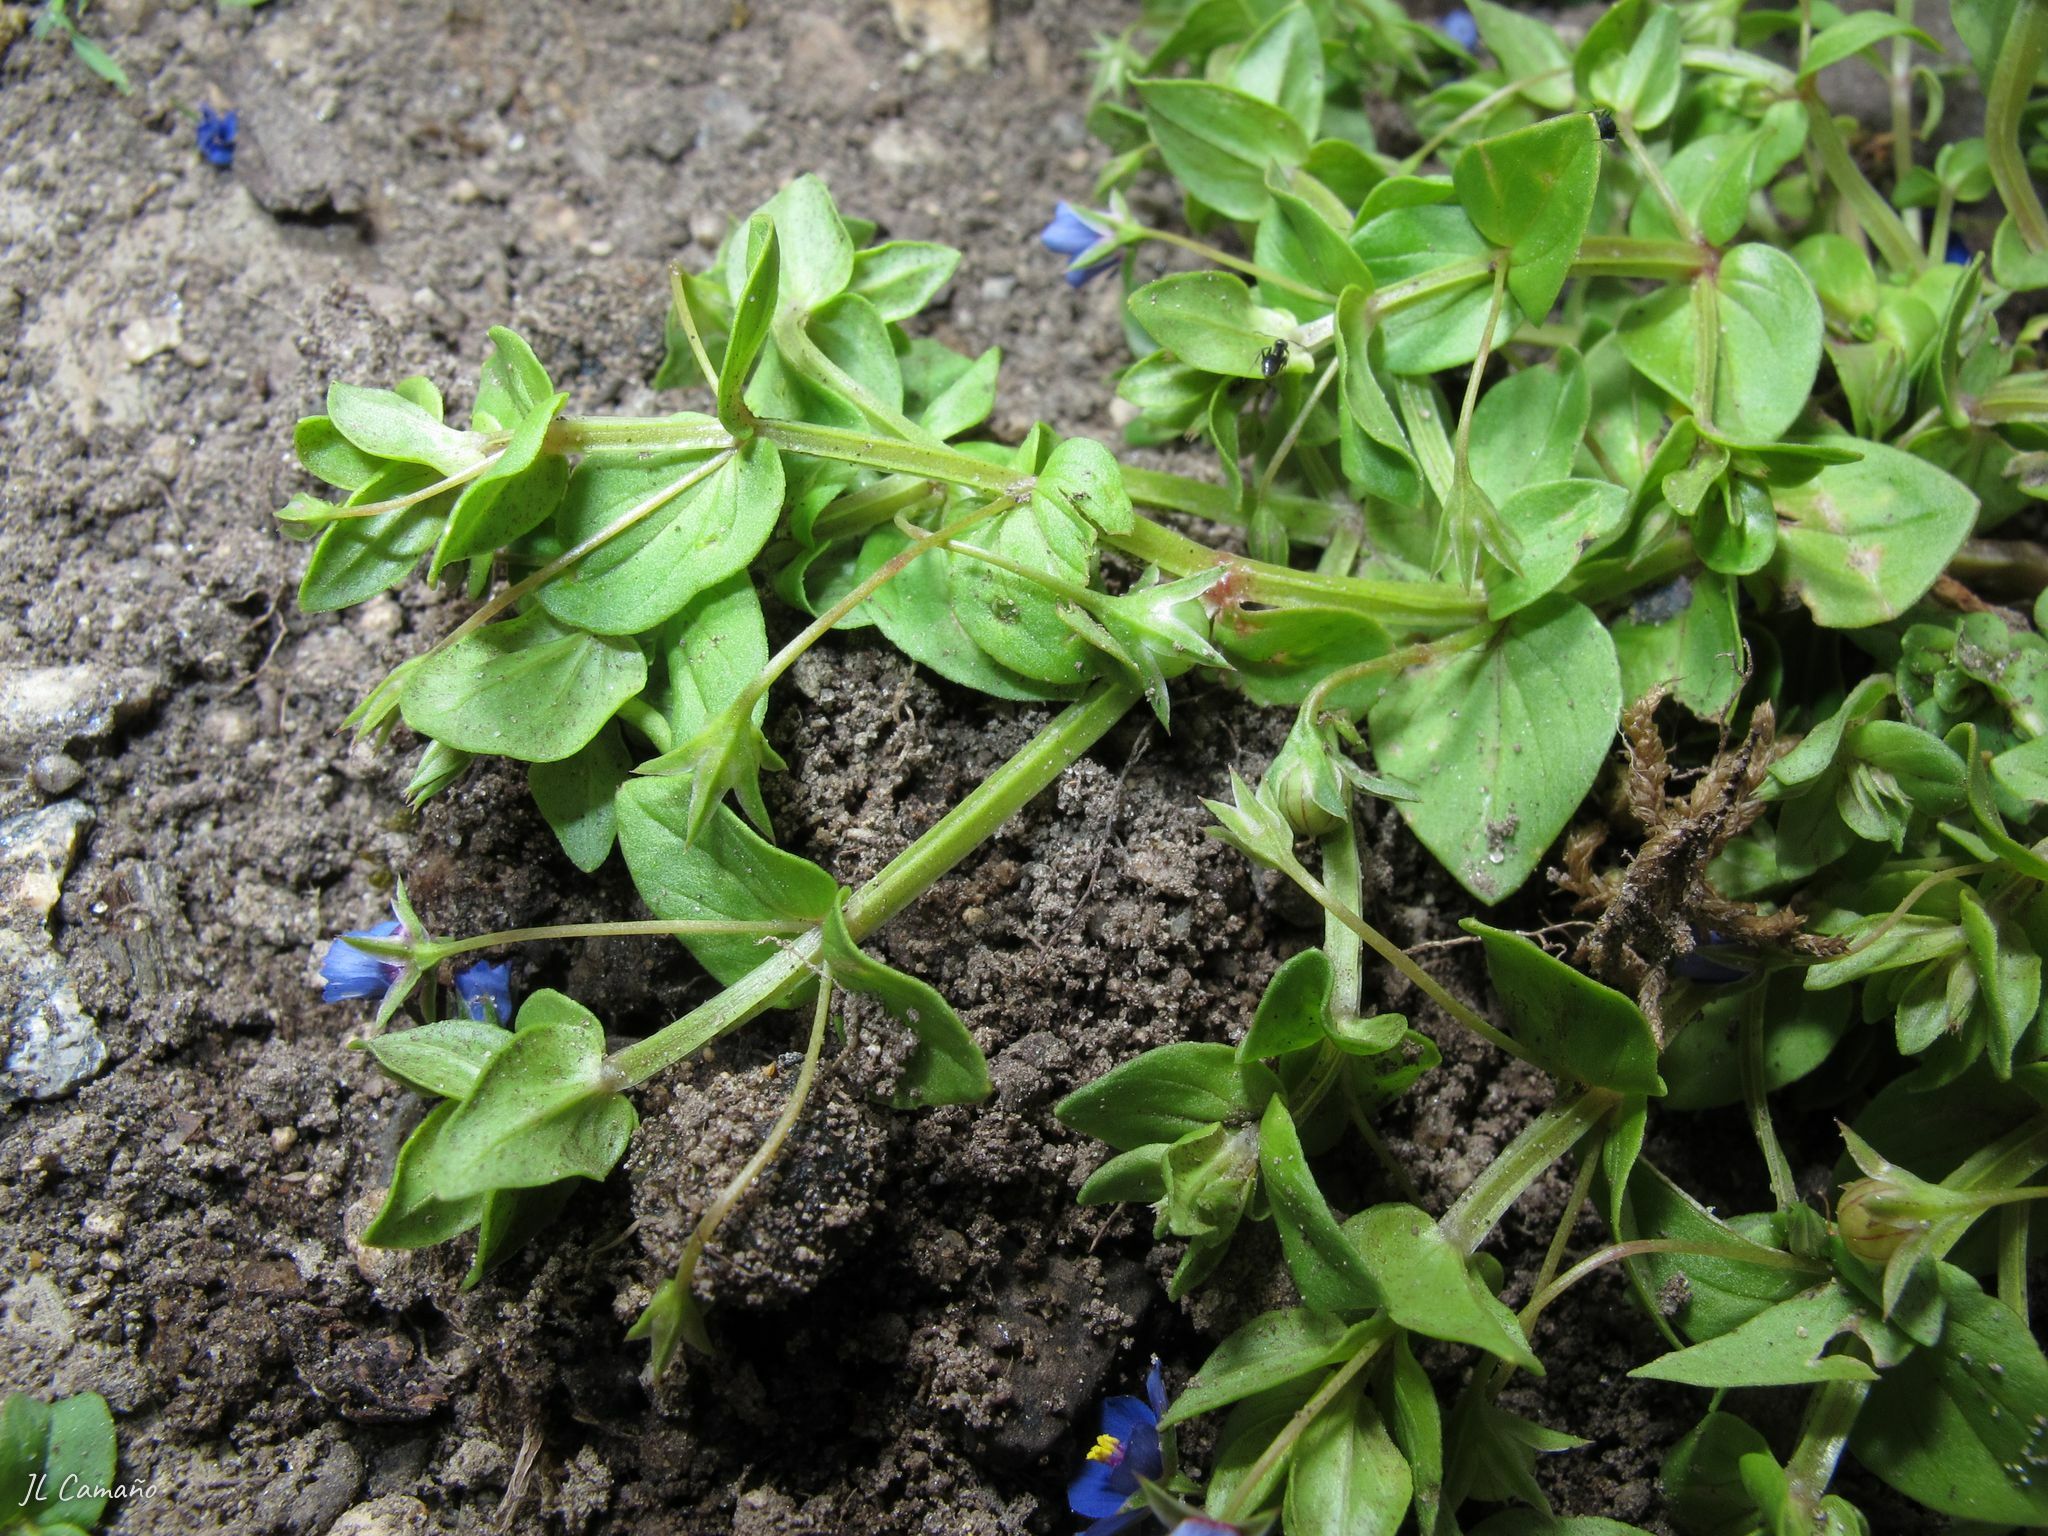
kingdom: Plantae
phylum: Tracheophyta
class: Magnoliopsida
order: Ericales
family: Primulaceae
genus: Lysimachia
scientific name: Lysimachia loeflingii
